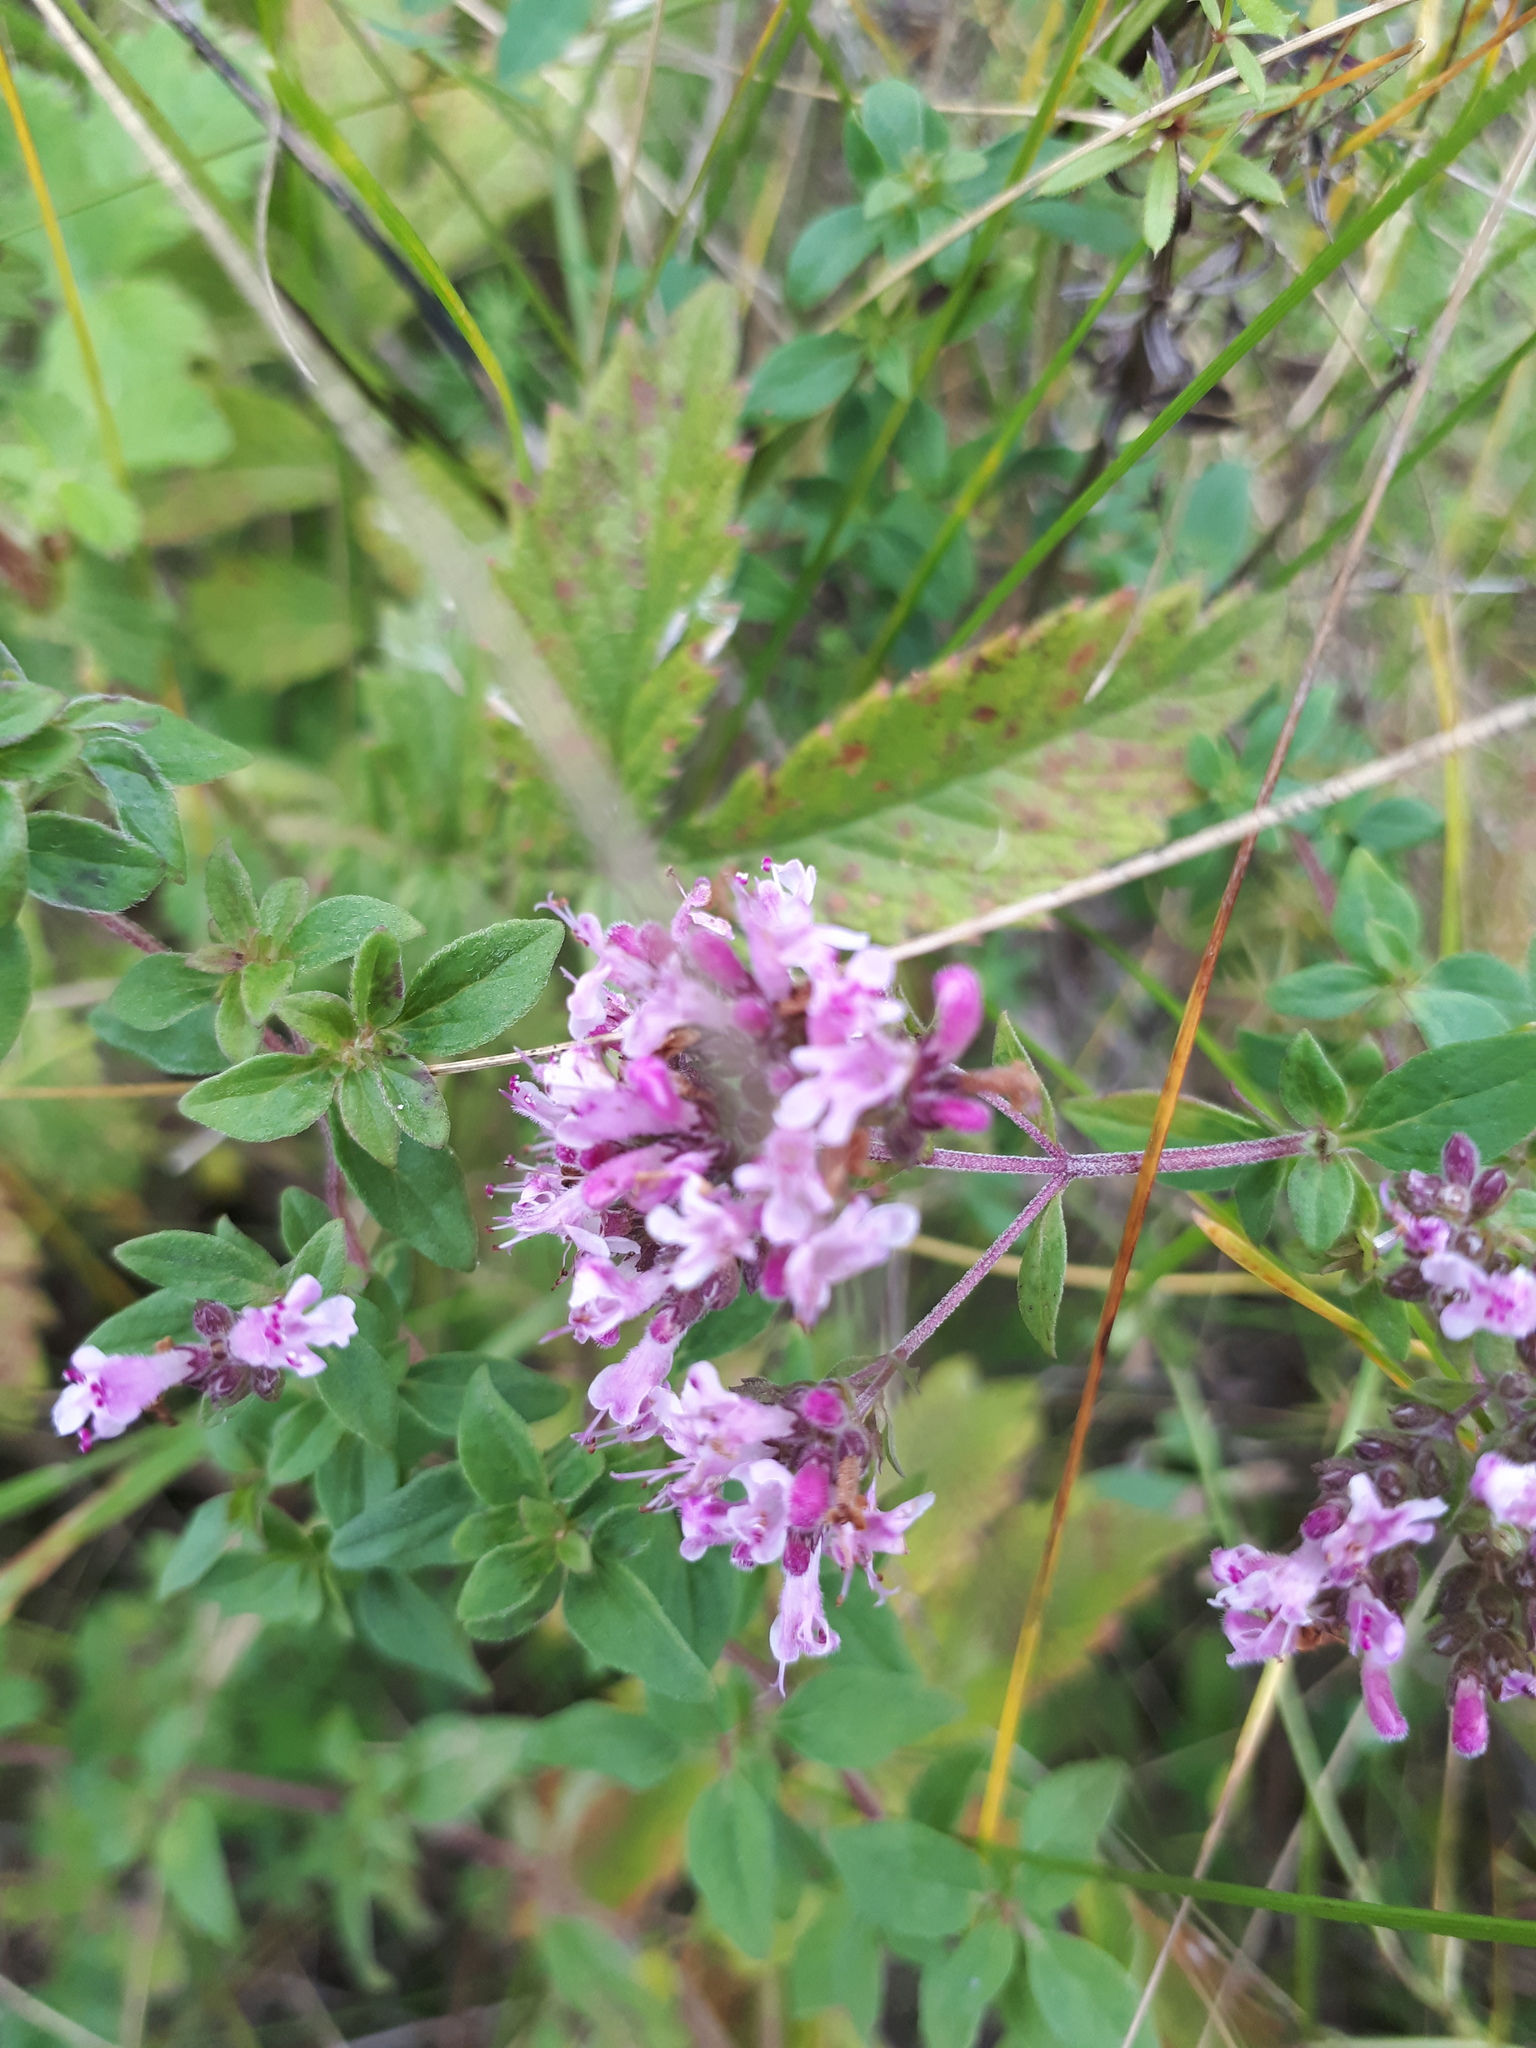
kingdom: Plantae
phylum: Tracheophyta
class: Magnoliopsida
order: Lamiales
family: Lamiaceae
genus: Origanum
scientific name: Origanum vulgare
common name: Wild marjoram
